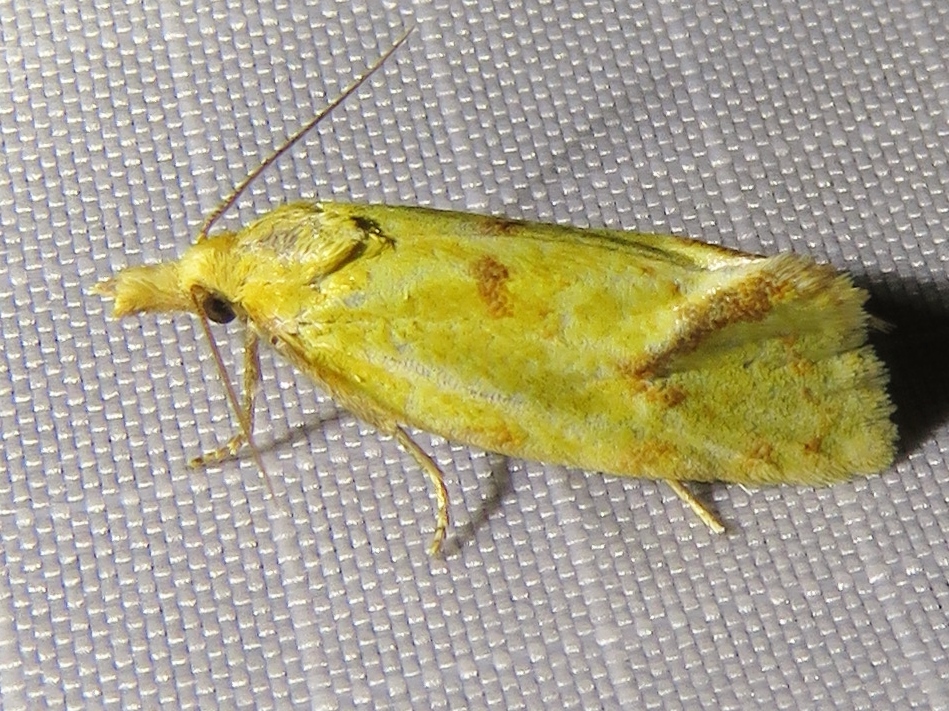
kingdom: Animalia
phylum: Arthropoda
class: Insecta
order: Lepidoptera
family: Tortricidae
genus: Agapeta
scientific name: Agapeta hamana
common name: Common yellow conch
